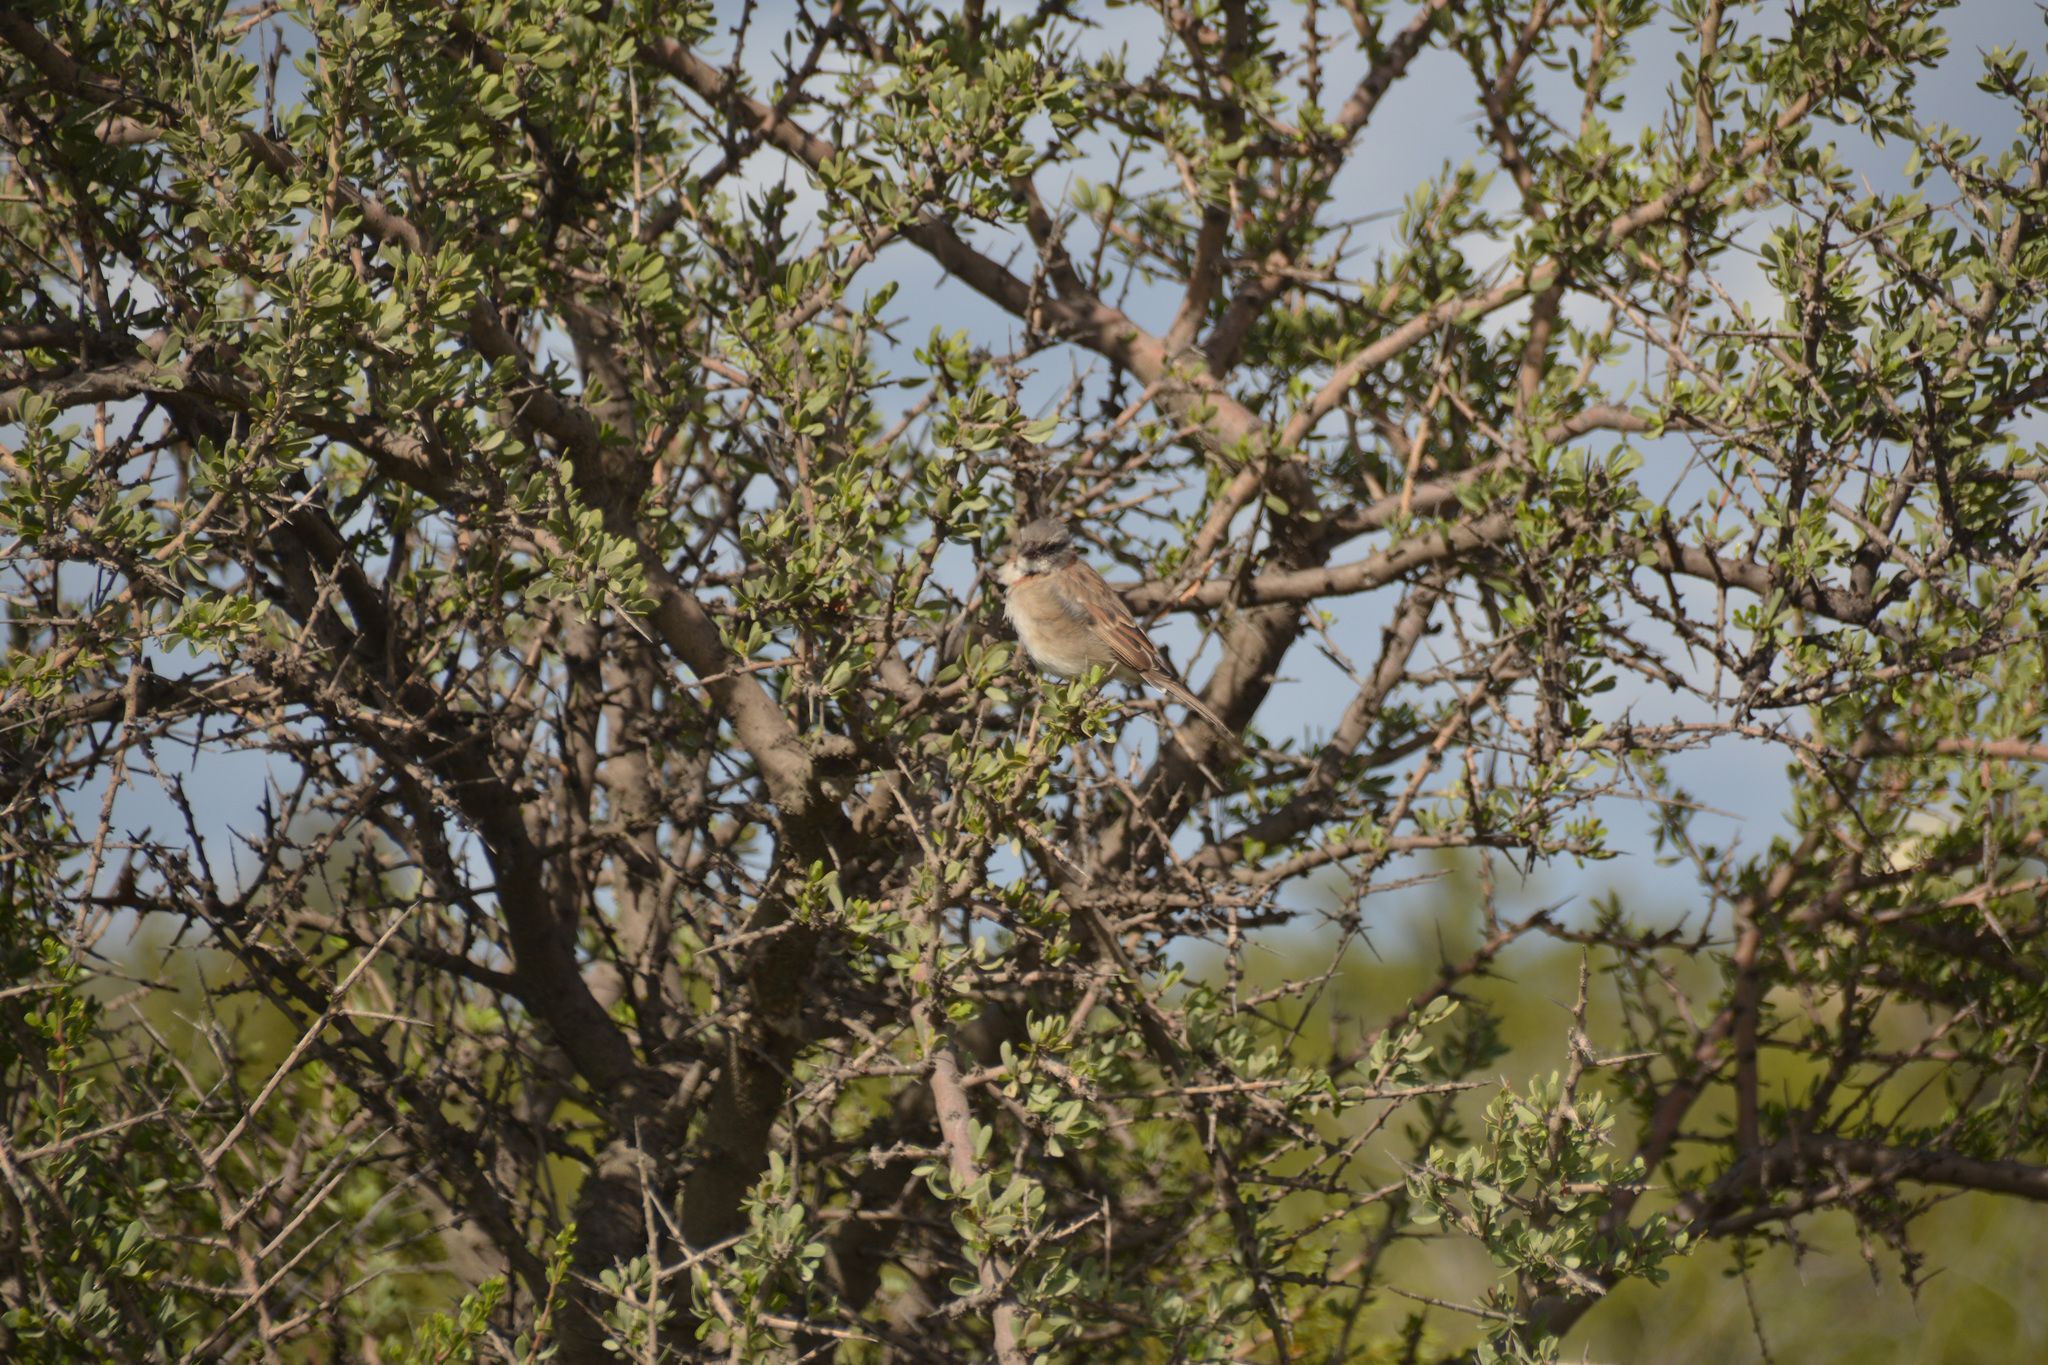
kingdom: Animalia
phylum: Chordata
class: Aves
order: Passeriformes
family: Passerellidae
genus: Zonotrichia
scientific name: Zonotrichia capensis
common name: Rufous-collared sparrow
